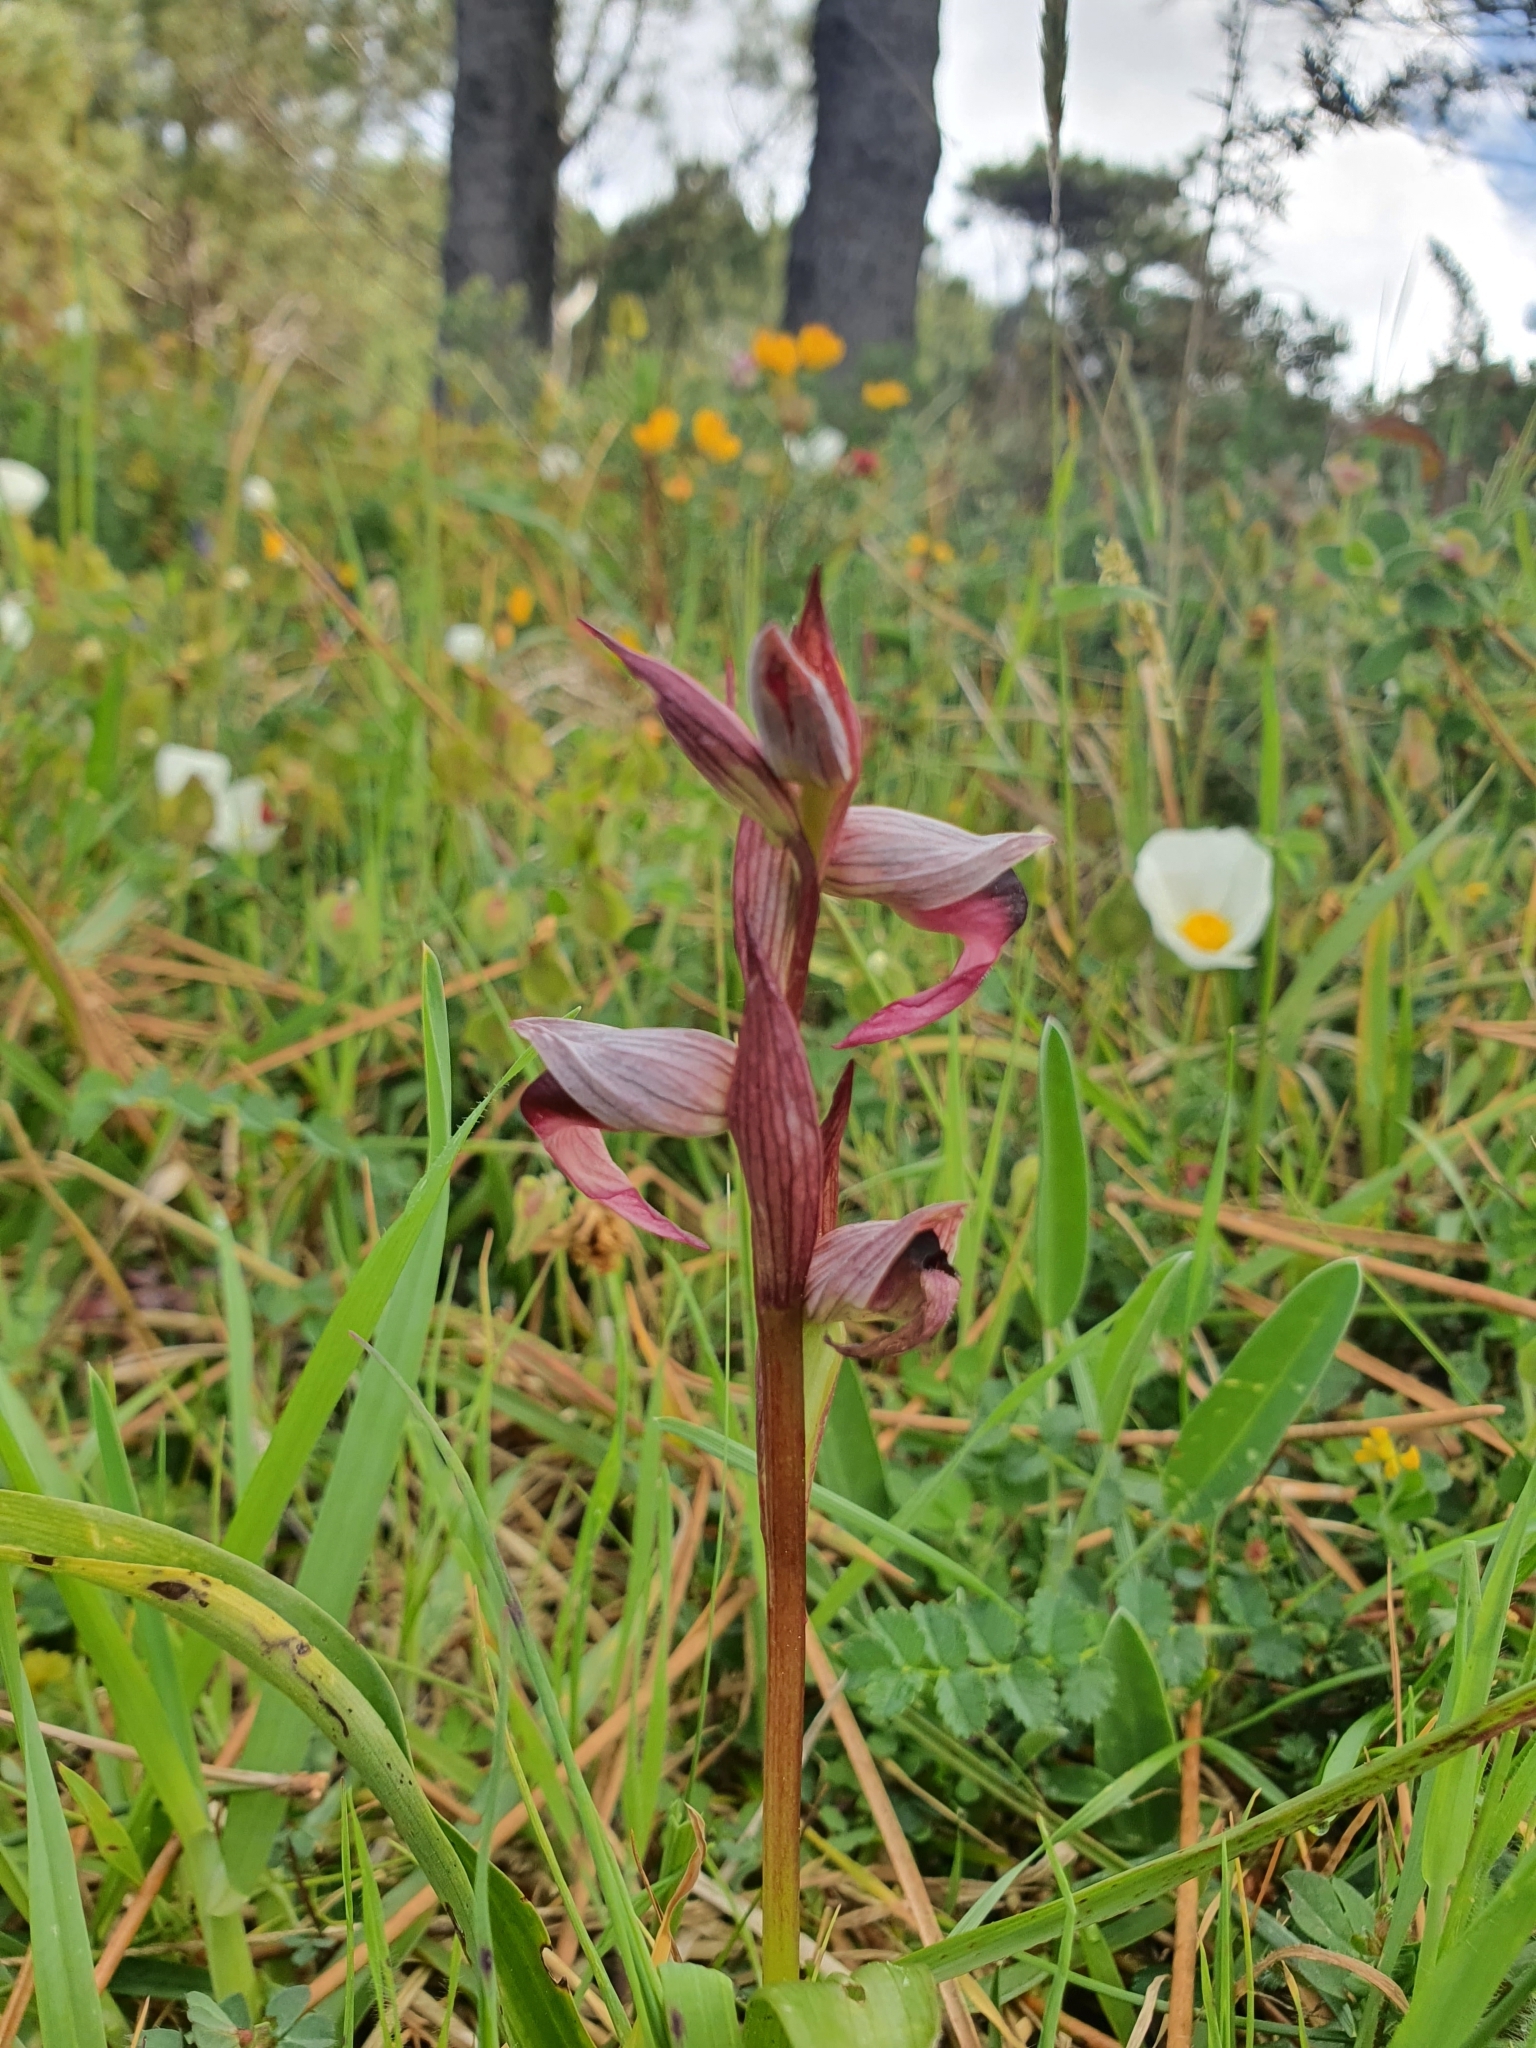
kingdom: Plantae
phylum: Tracheophyta
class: Liliopsida
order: Asparagales
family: Orchidaceae
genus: Serapias
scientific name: Serapias lingua
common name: Tongue-orchid
